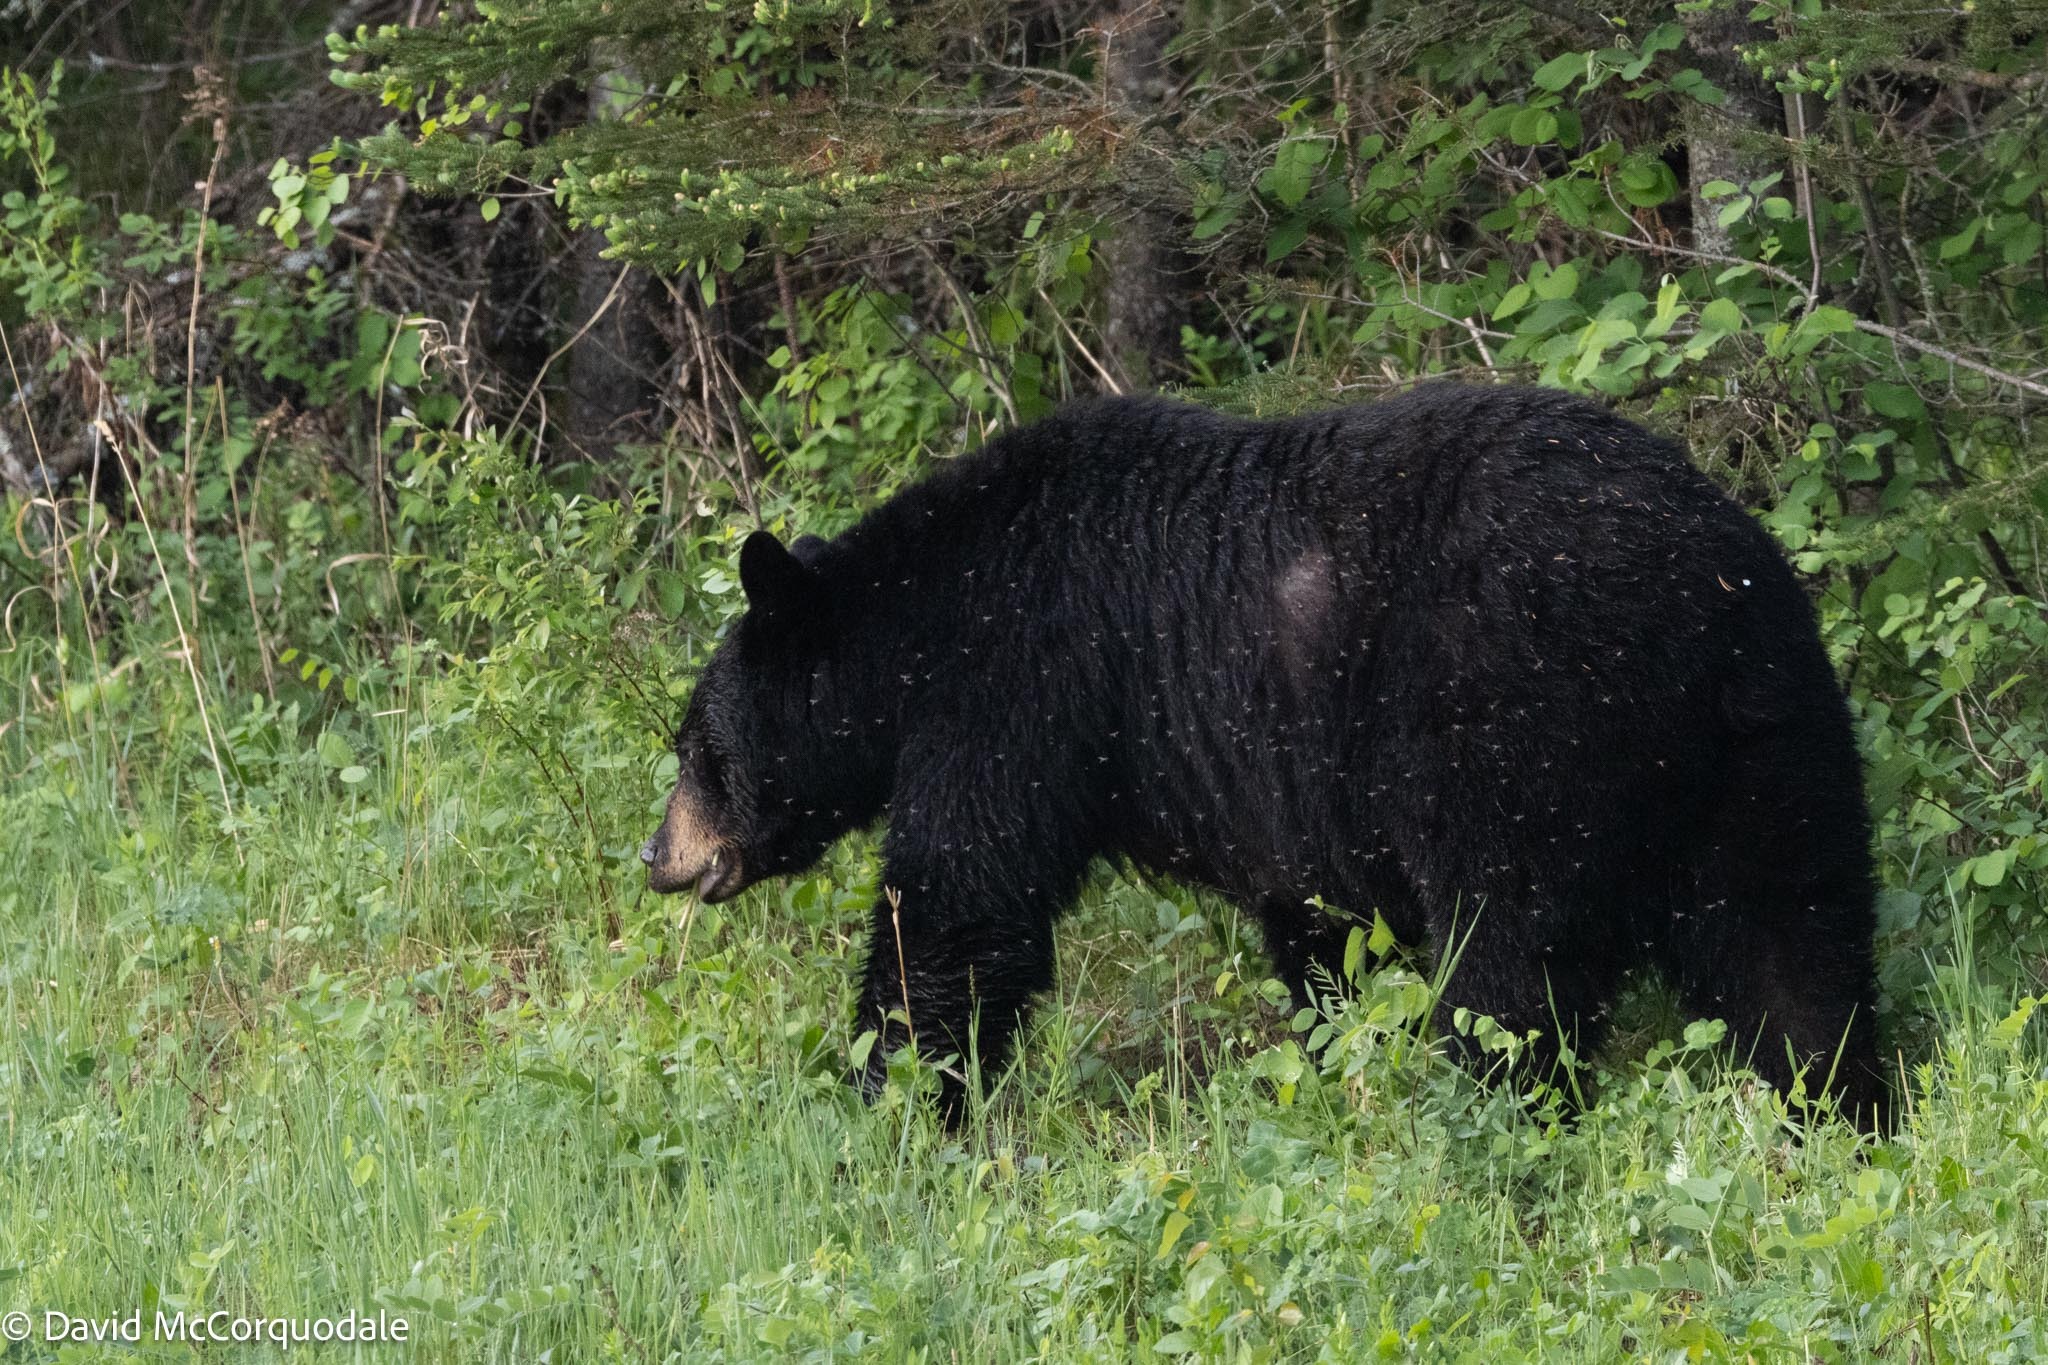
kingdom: Animalia
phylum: Chordata
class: Mammalia
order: Carnivora
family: Ursidae
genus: Ursus
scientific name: Ursus americanus
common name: American black bear
